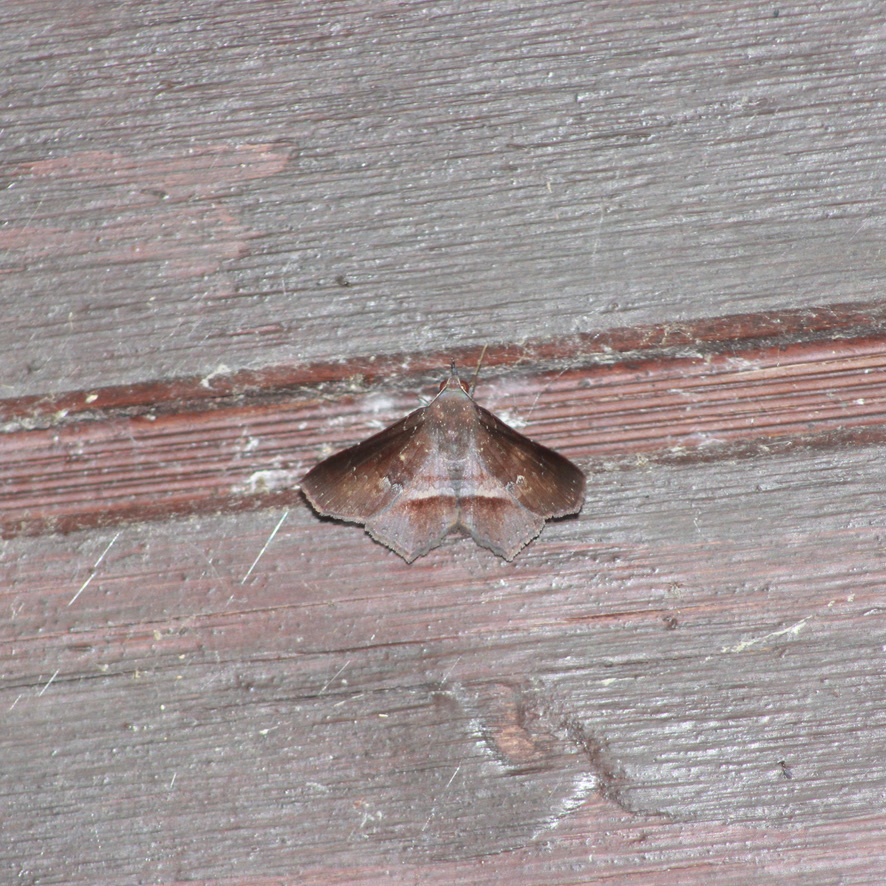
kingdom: Animalia
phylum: Arthropoda
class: Insecta
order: Lepidoptera
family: Erebidae
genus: Euclystis
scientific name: Euclystis intacta
